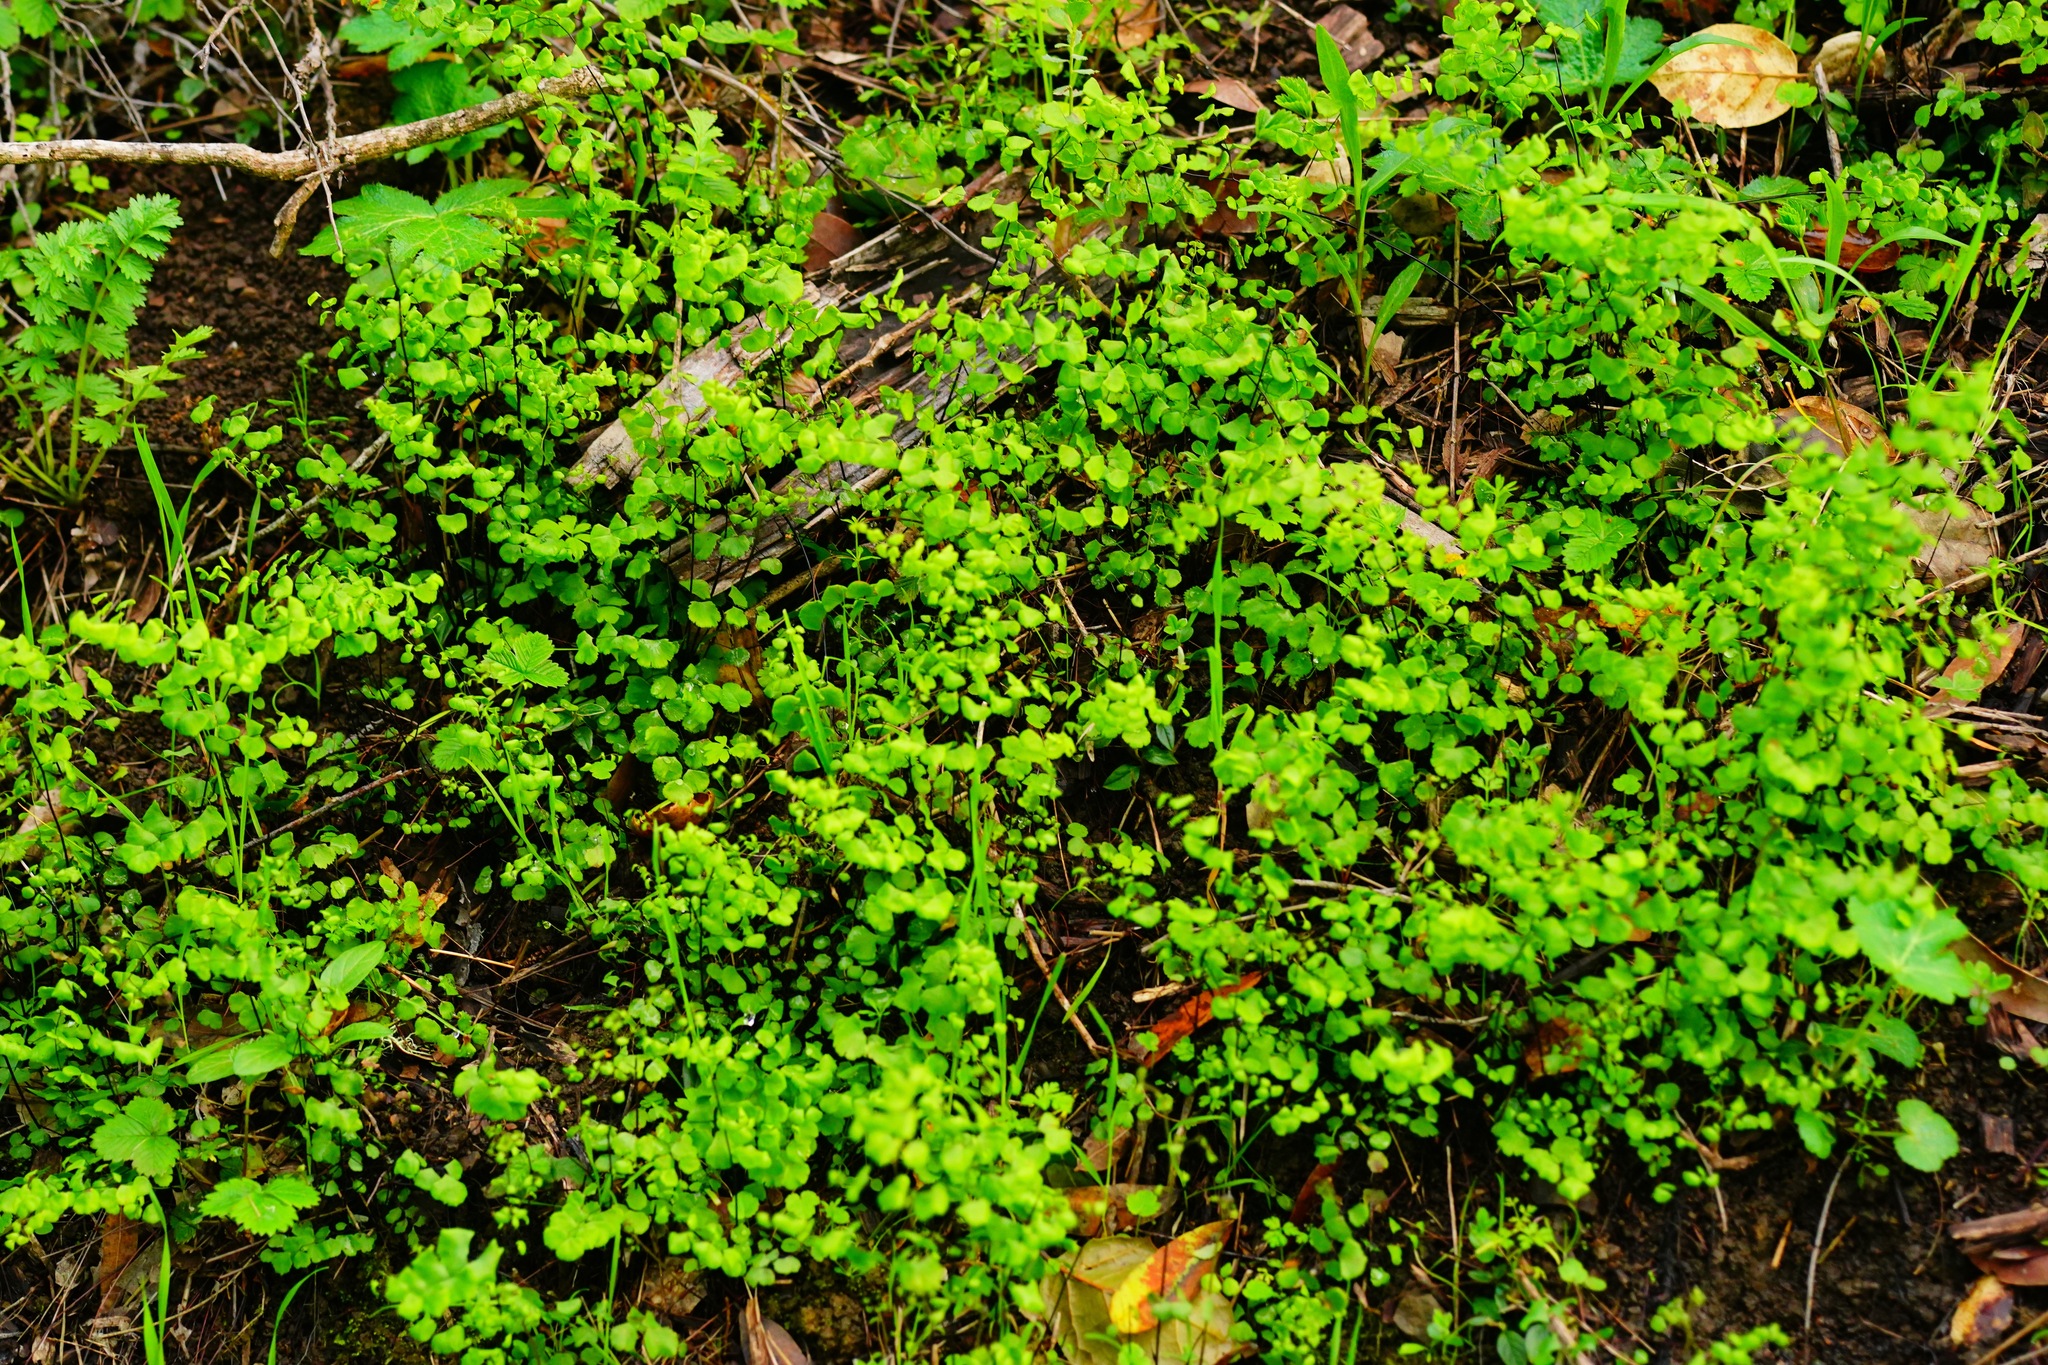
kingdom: Plantae
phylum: Tracheophyta
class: Polypodiopsida
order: Polypodiales
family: Pteridaceae
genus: Adiantum
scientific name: Adiantum jordanii
